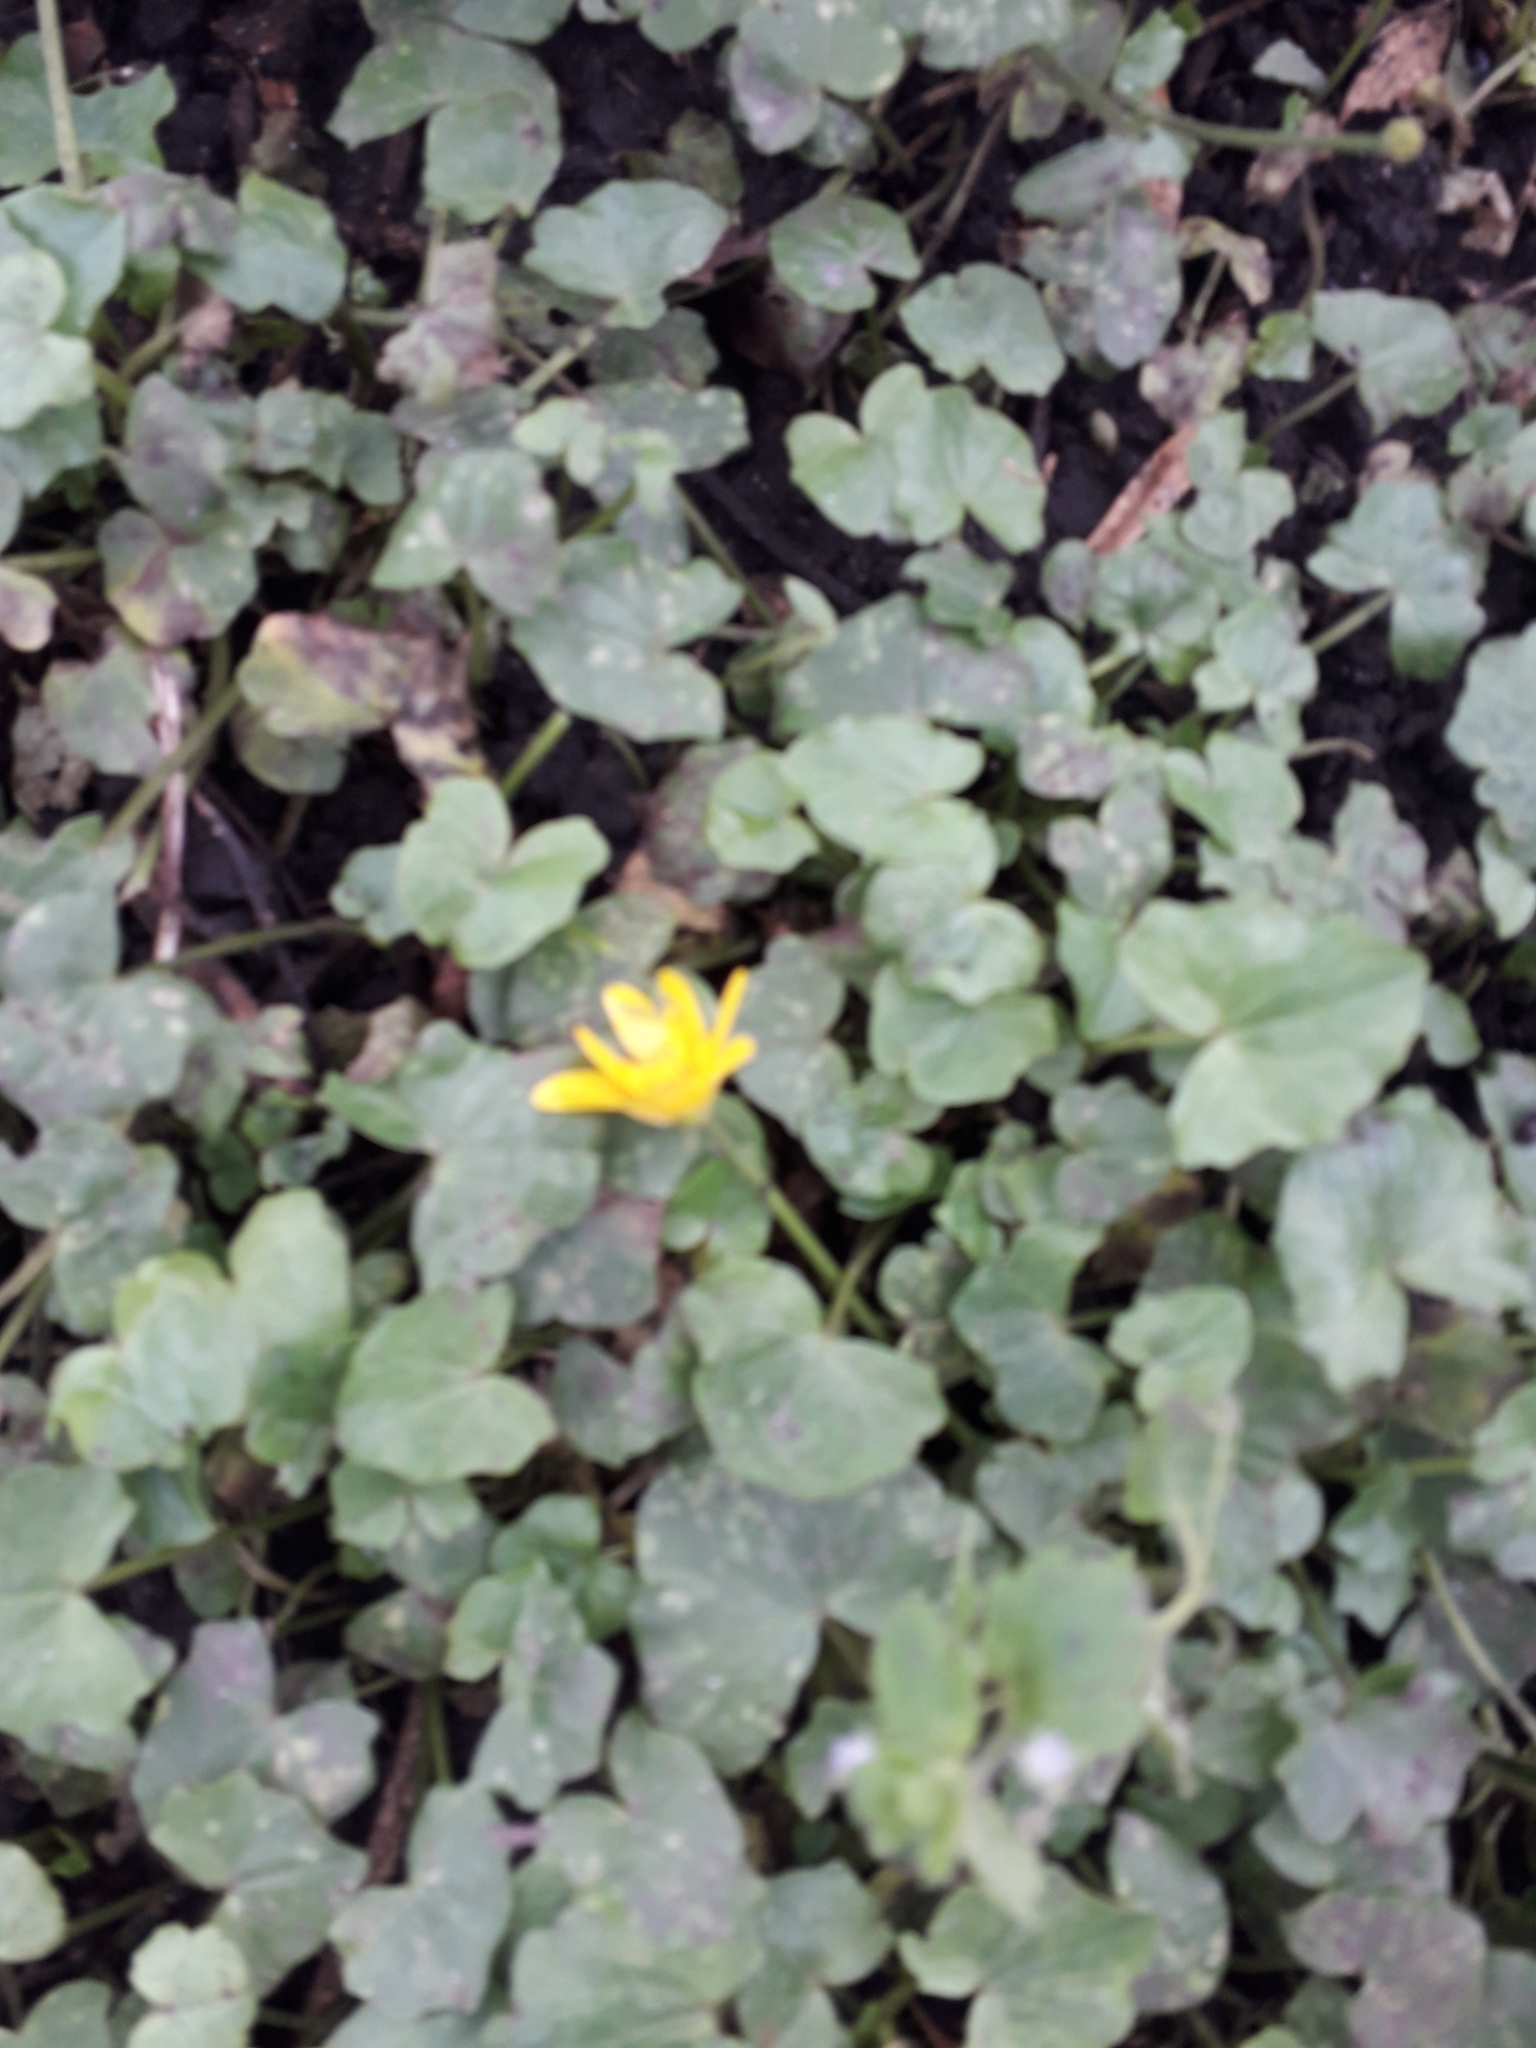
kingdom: Plantae
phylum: Tracheophyta
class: Magnoliopsida
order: Ranunculales
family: Ranunculaceae
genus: Ficaria
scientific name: Ficaria verna
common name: Lesser celandine
